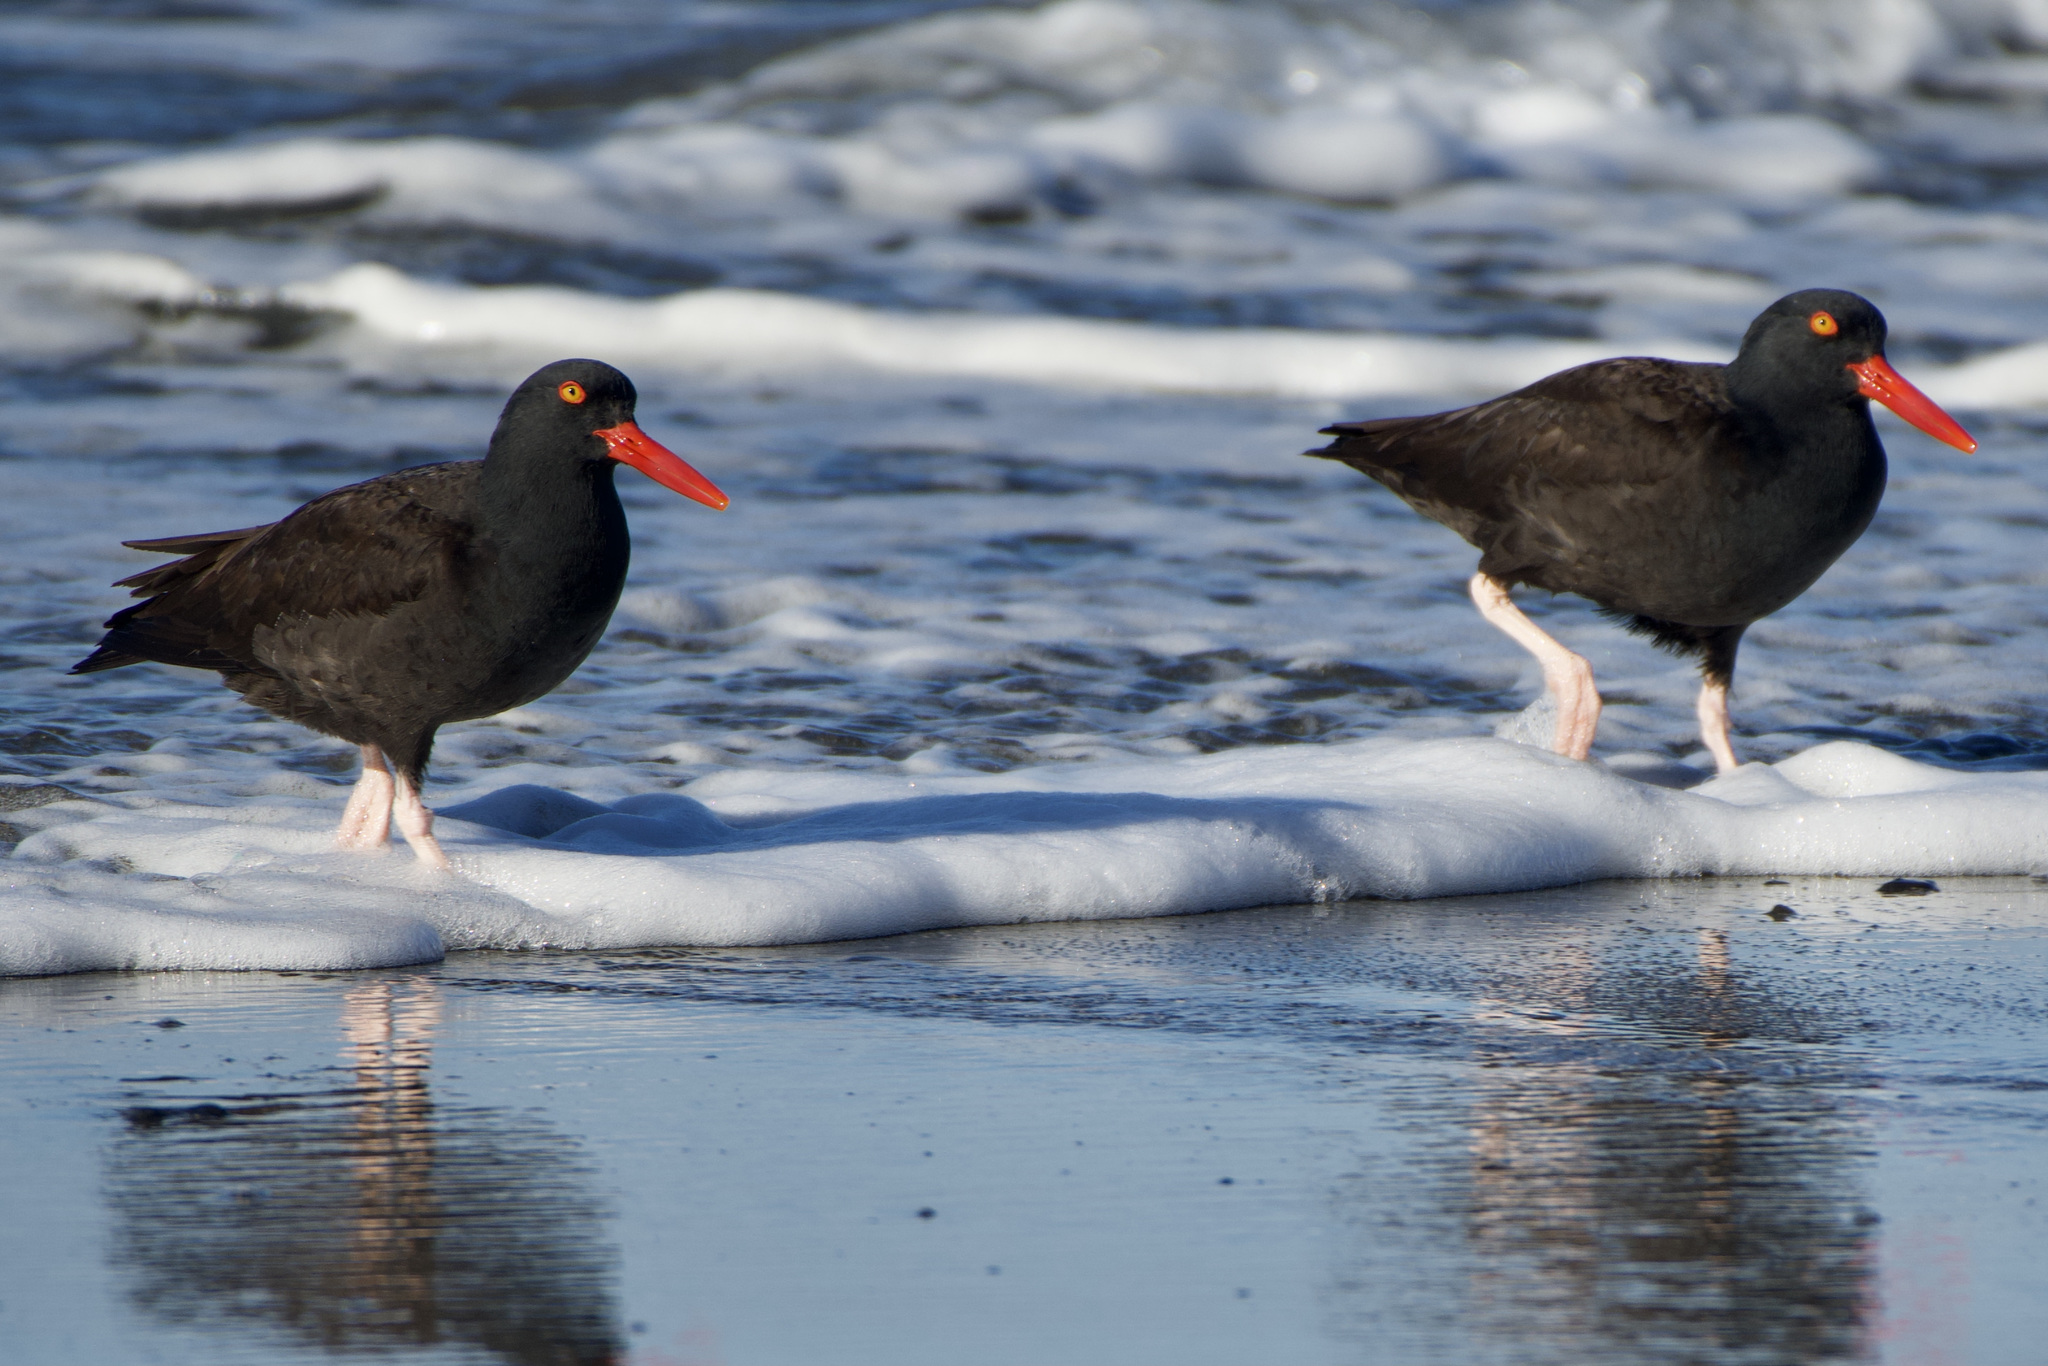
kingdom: Animalia
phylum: Chordata
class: Aves
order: Charadriiformes
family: Haematopodidae
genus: Haematopus
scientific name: Haematopus bachmani
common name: Black oystercatcher
